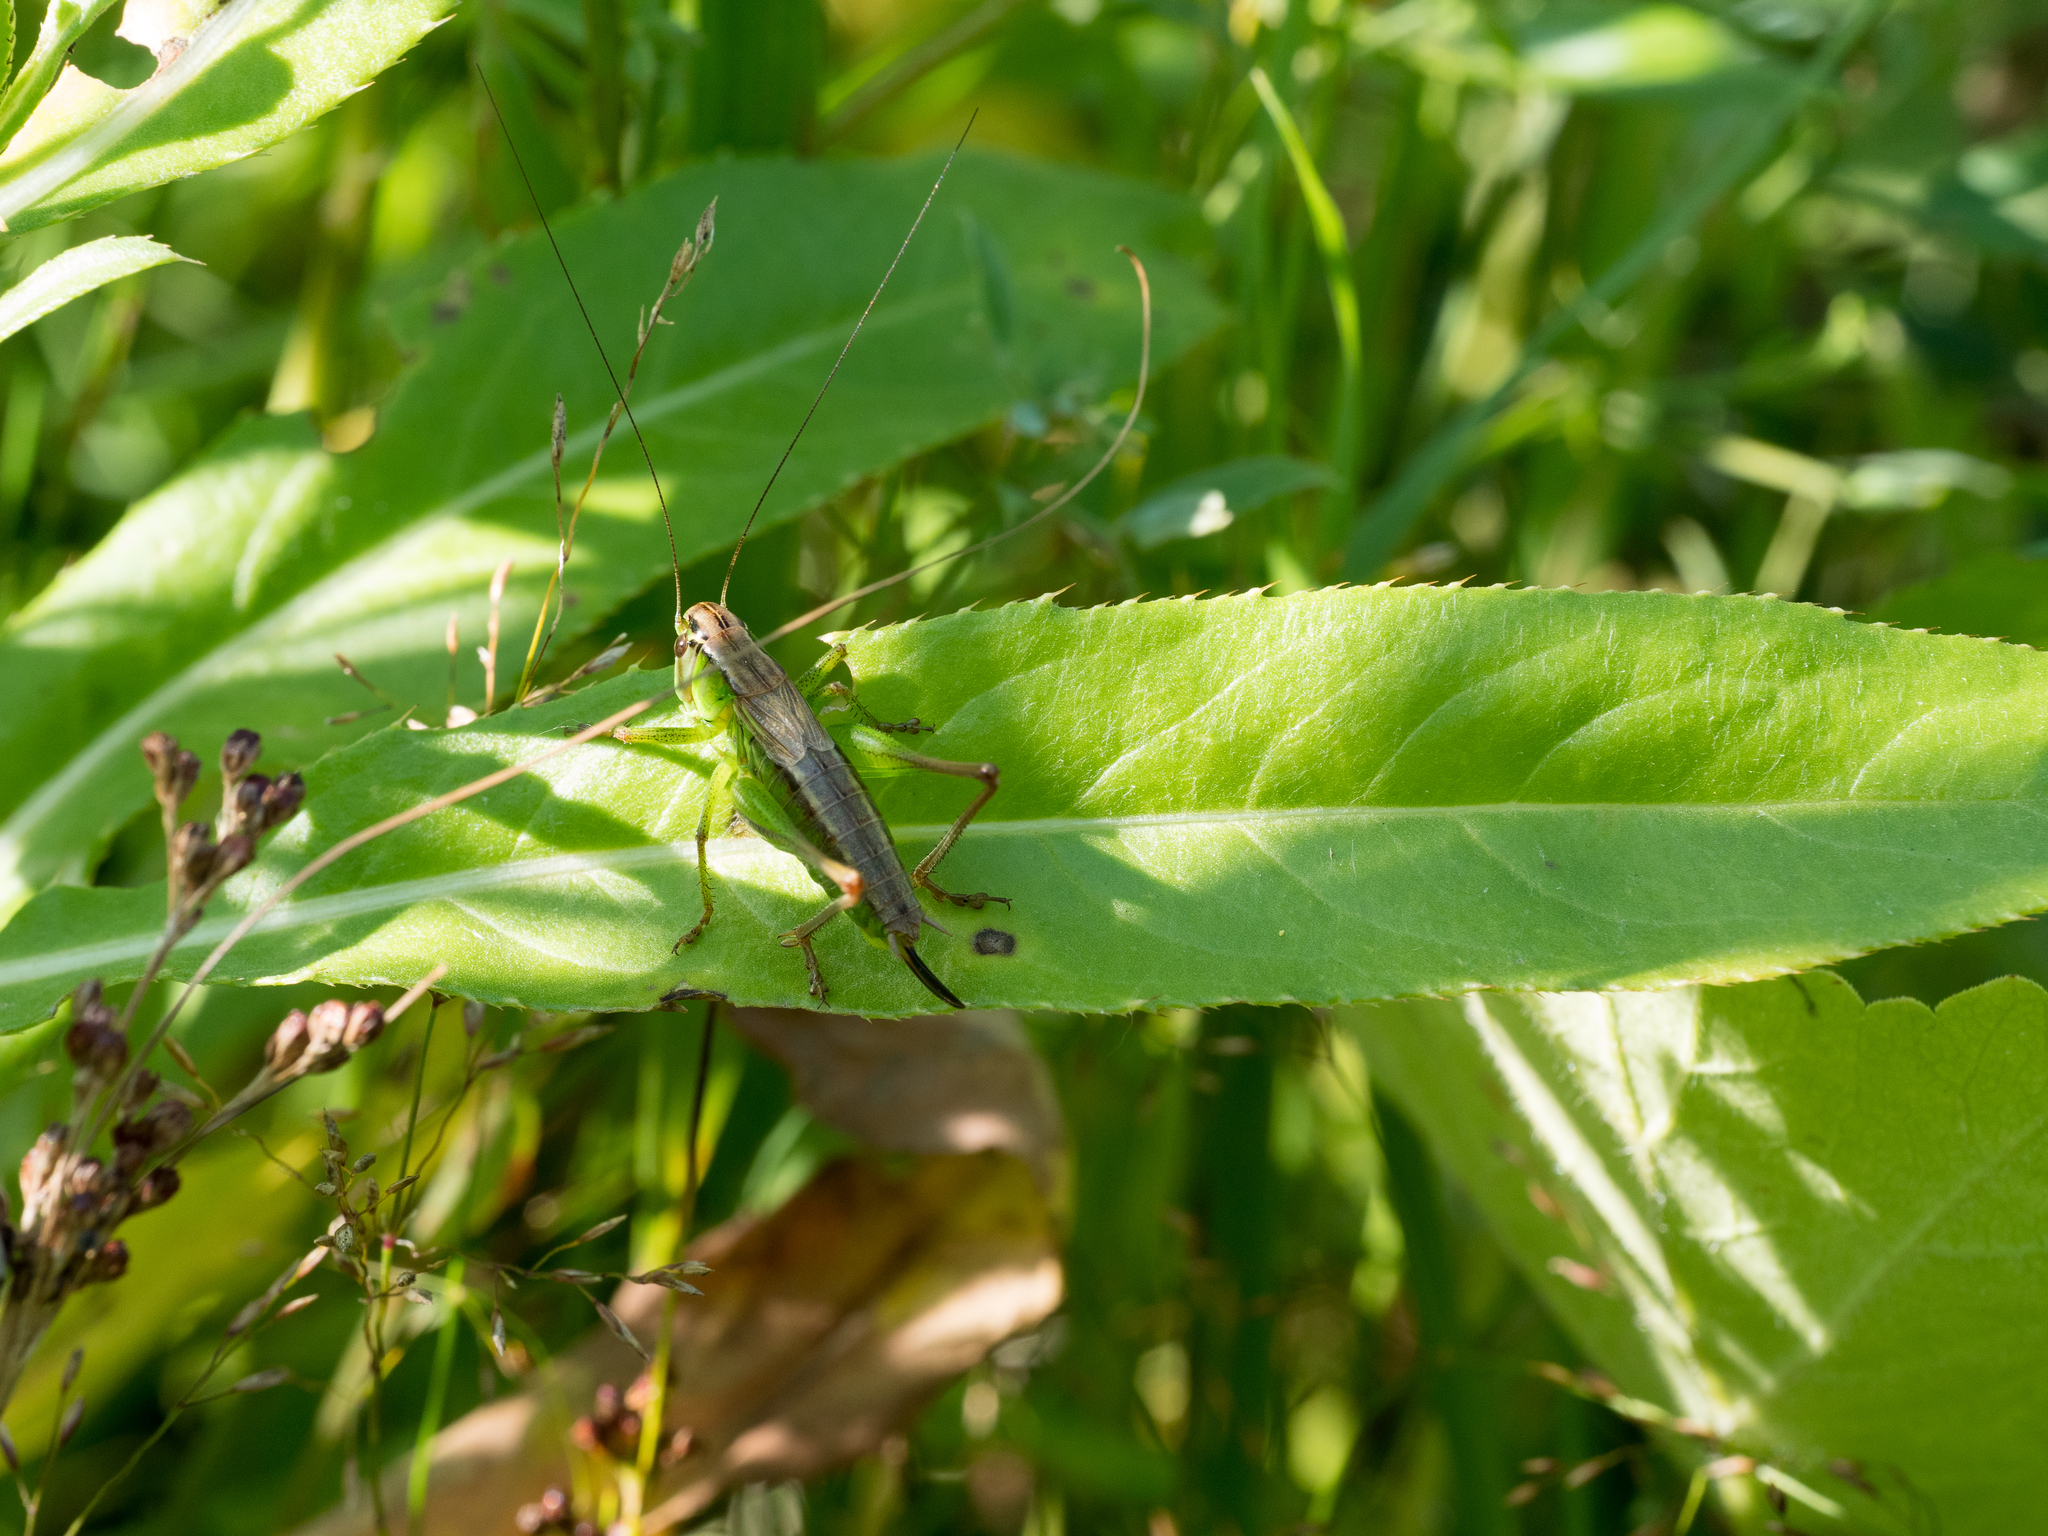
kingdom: Animalia
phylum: Arthropoda
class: Insecta
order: Orthoptera
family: Tettigoniidae
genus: Roeseliana
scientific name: Roeseliana roeselii
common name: Roesel's bush cricket
